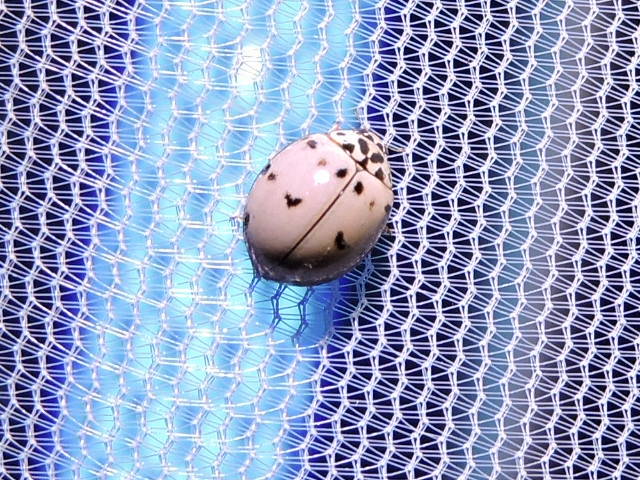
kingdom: Animalia
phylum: Arthropoda
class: Insecta
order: Coleoptera
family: Coccinellidae
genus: Olla
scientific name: Olla v-nigrum
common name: Ashy gray lady beetle
